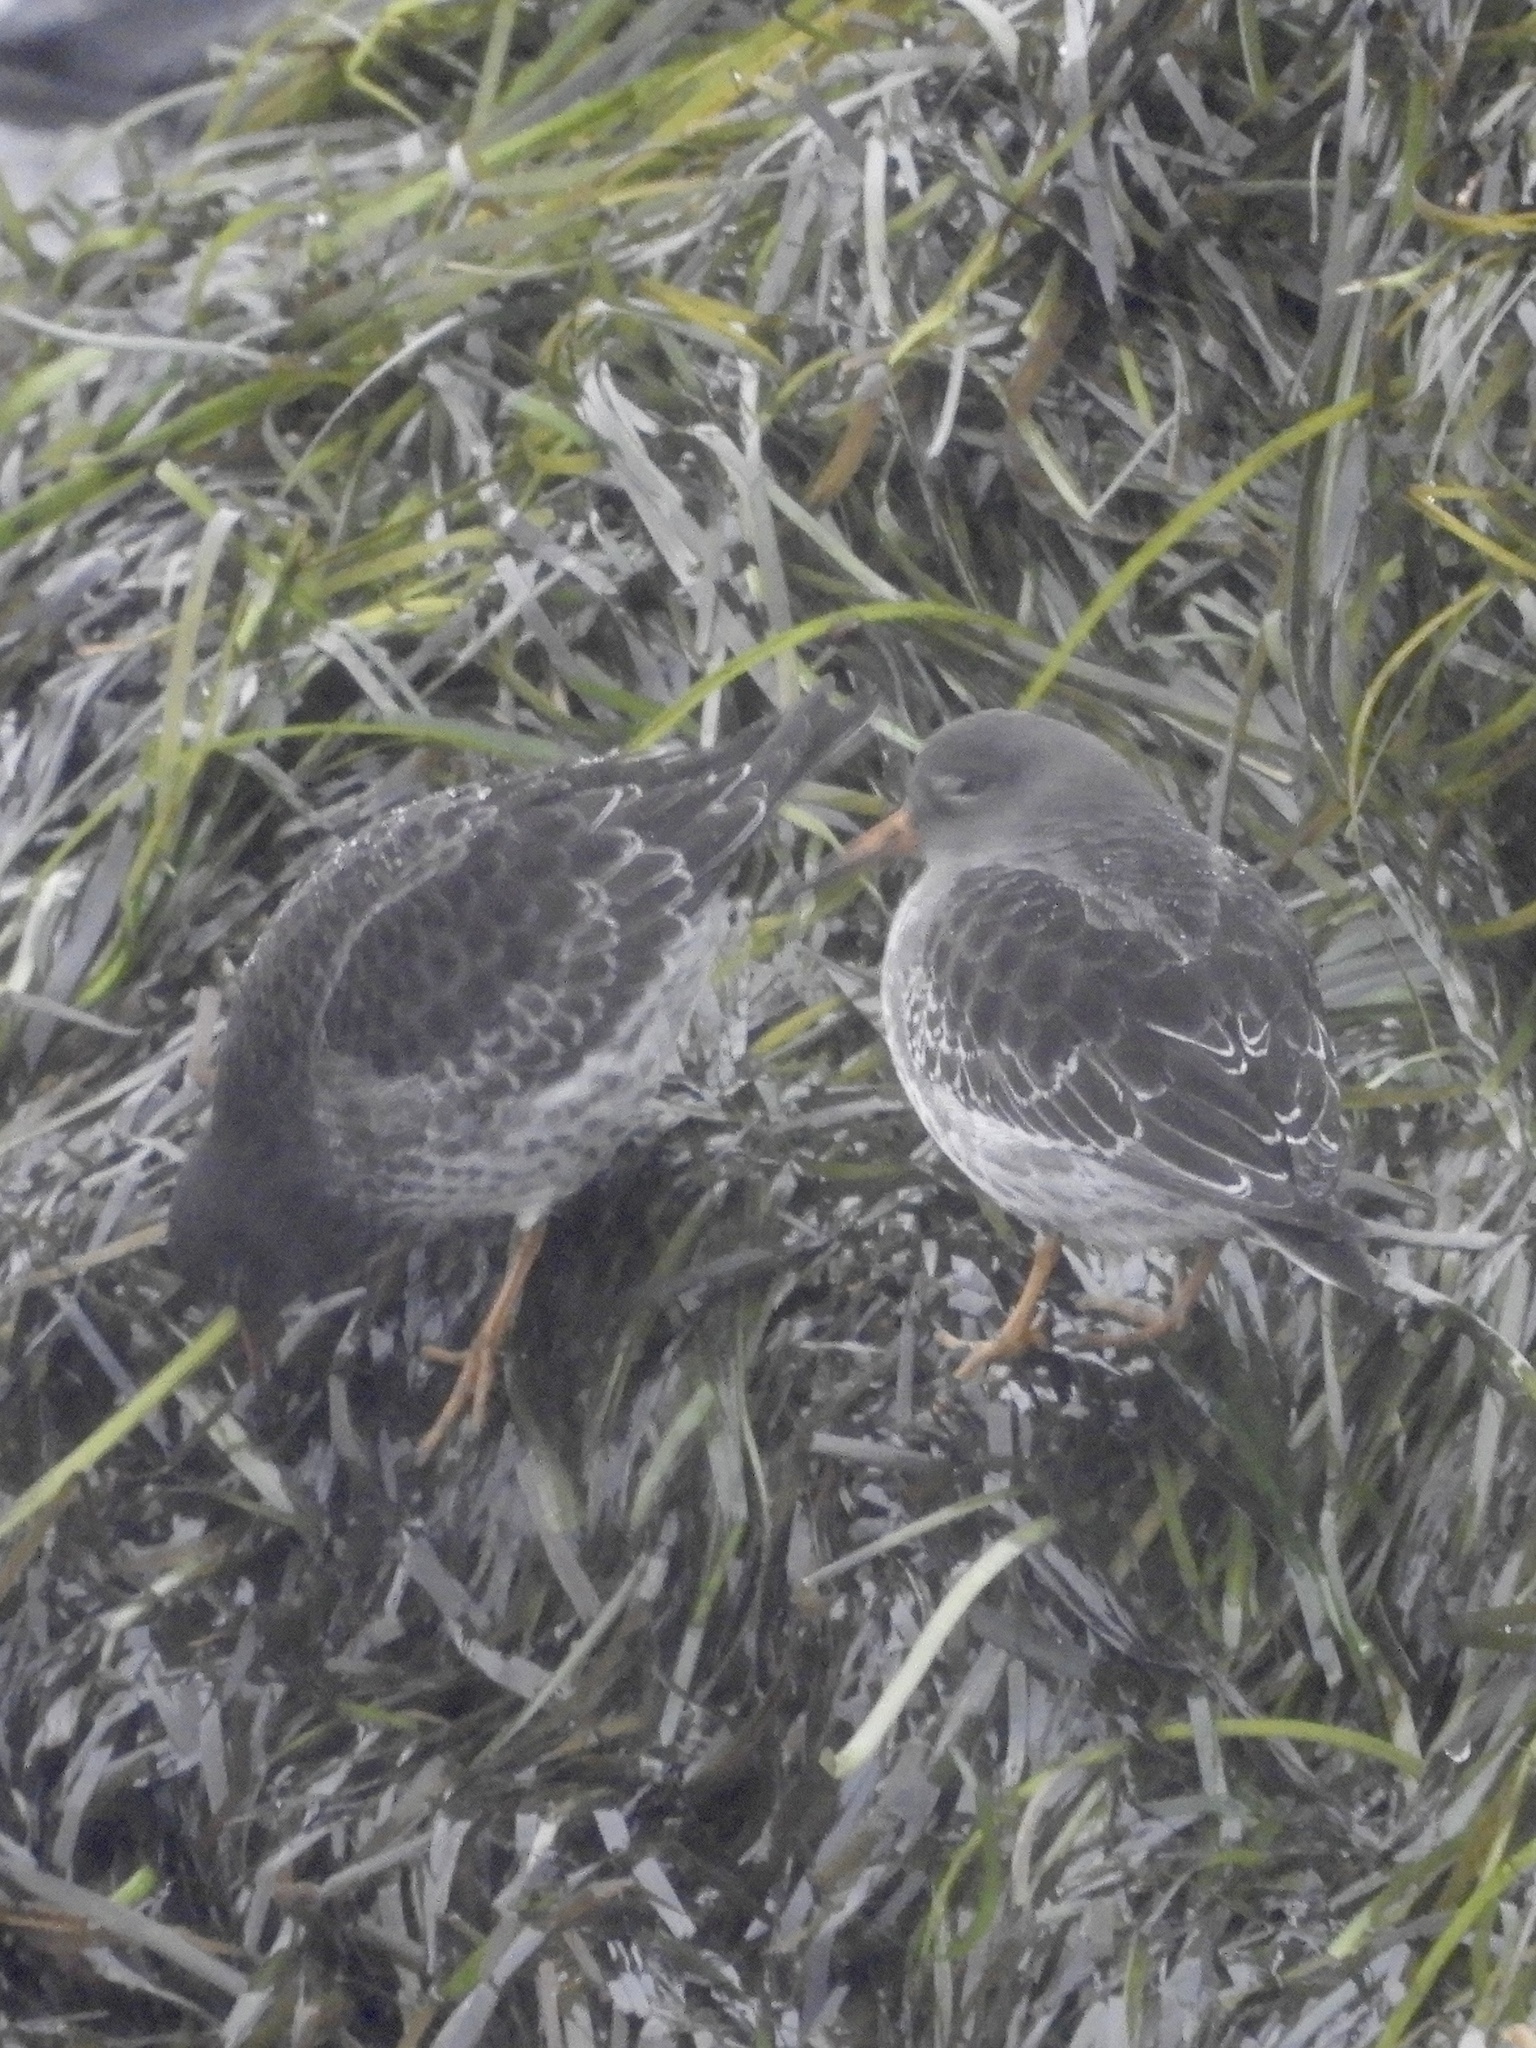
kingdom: Animalia
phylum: Chordata
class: Aves
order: Charadriiformes
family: Scolopacidae
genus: Calidris
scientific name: Calidris maritima
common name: Purple sandpiper
